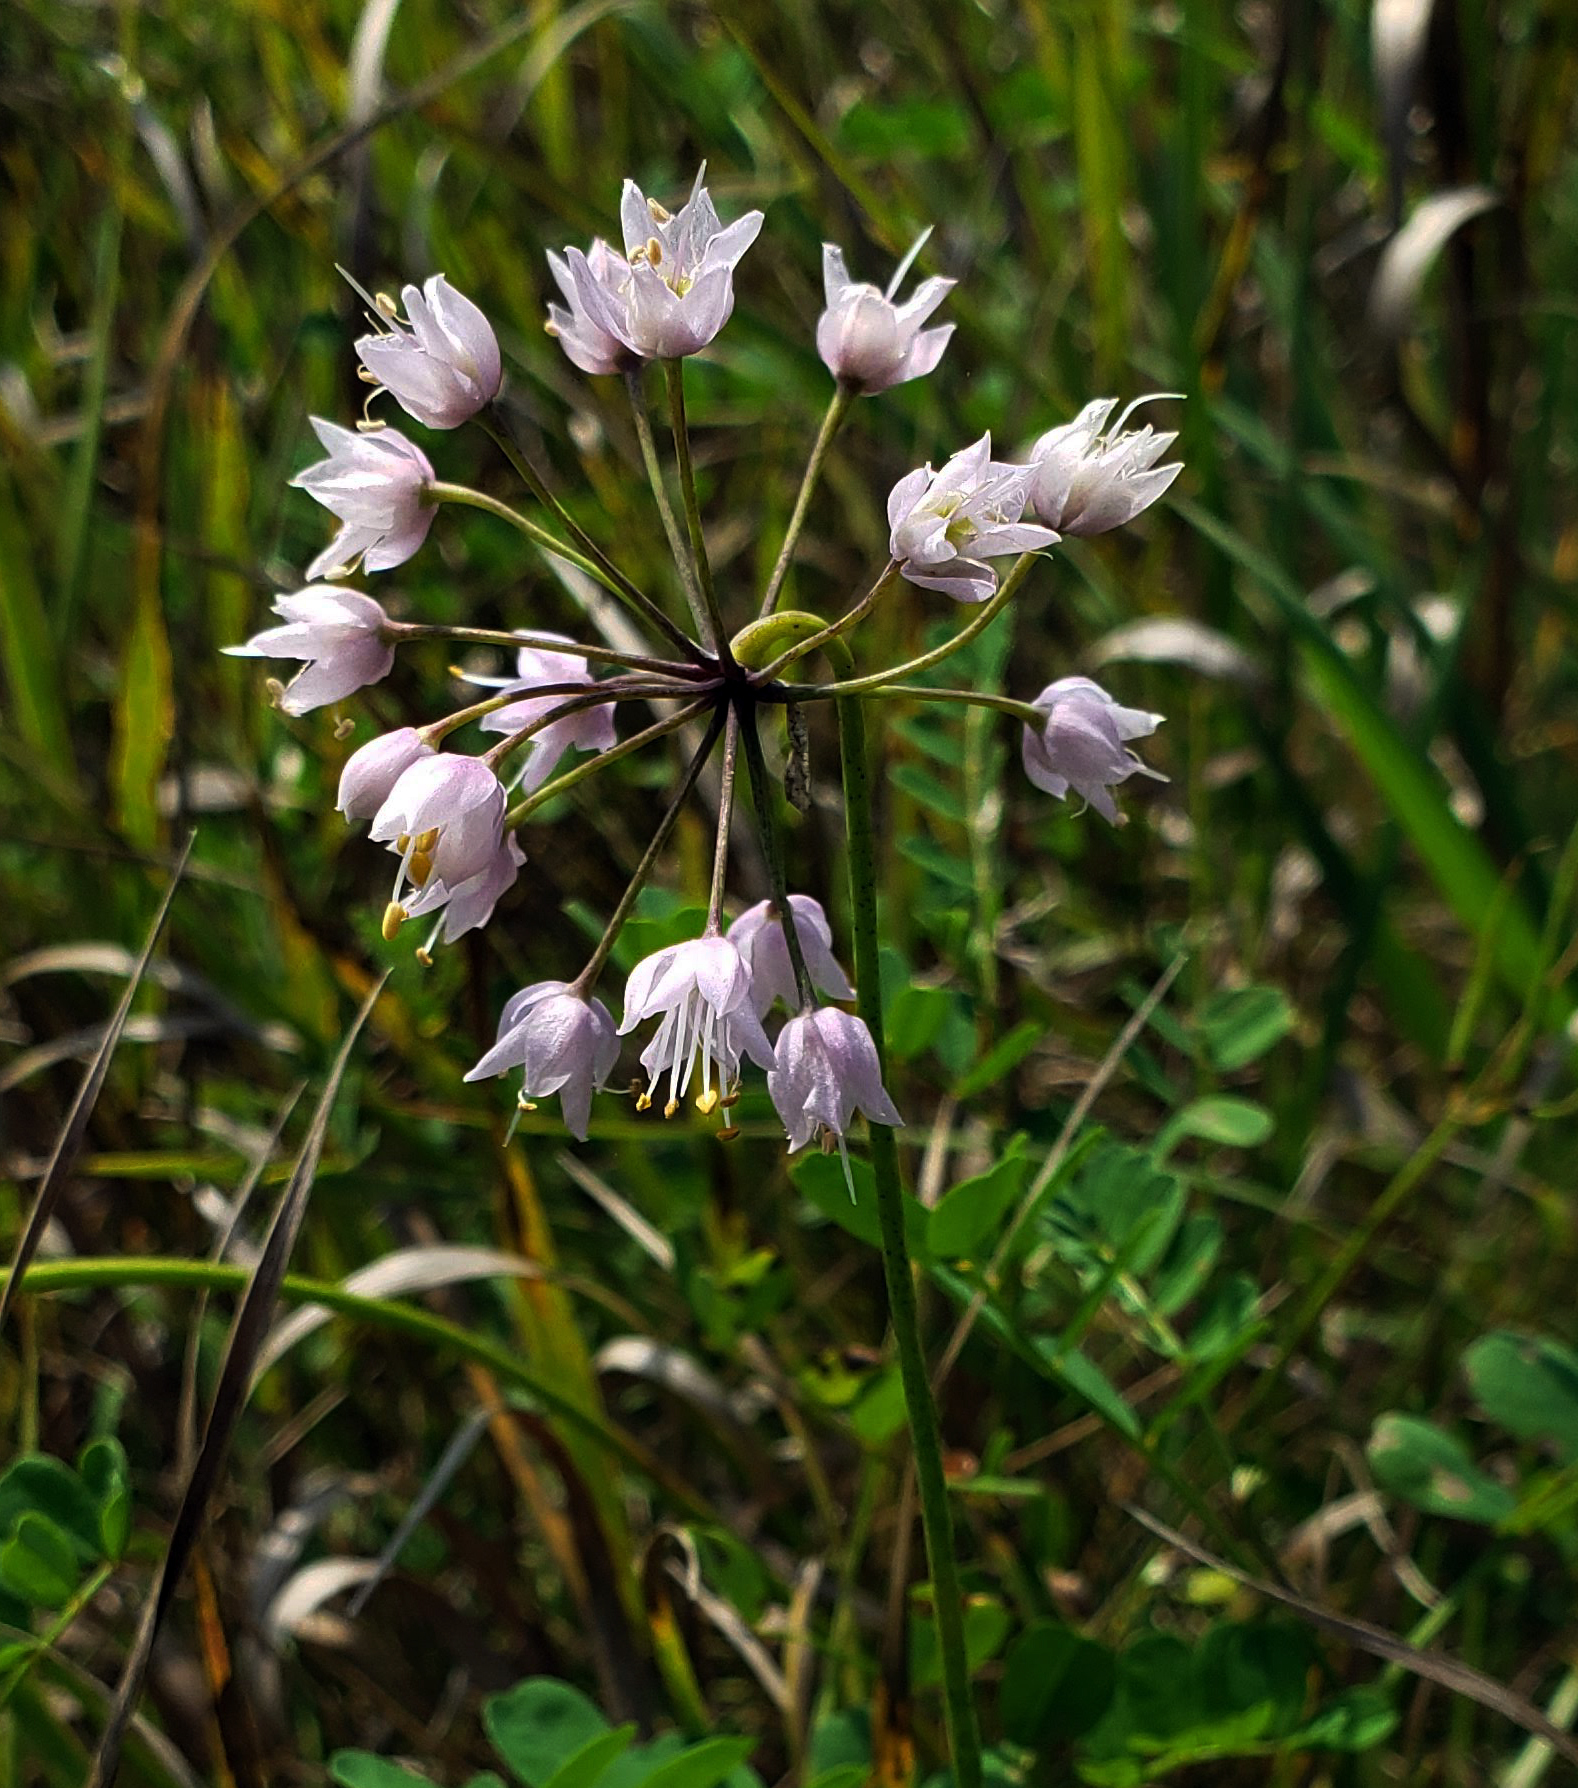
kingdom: Plantae
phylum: Tracheophyta
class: Liliopsida
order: Asparagales
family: Amaryllidaceae
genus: Allium
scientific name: Allium cernuum
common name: Nodding onion
